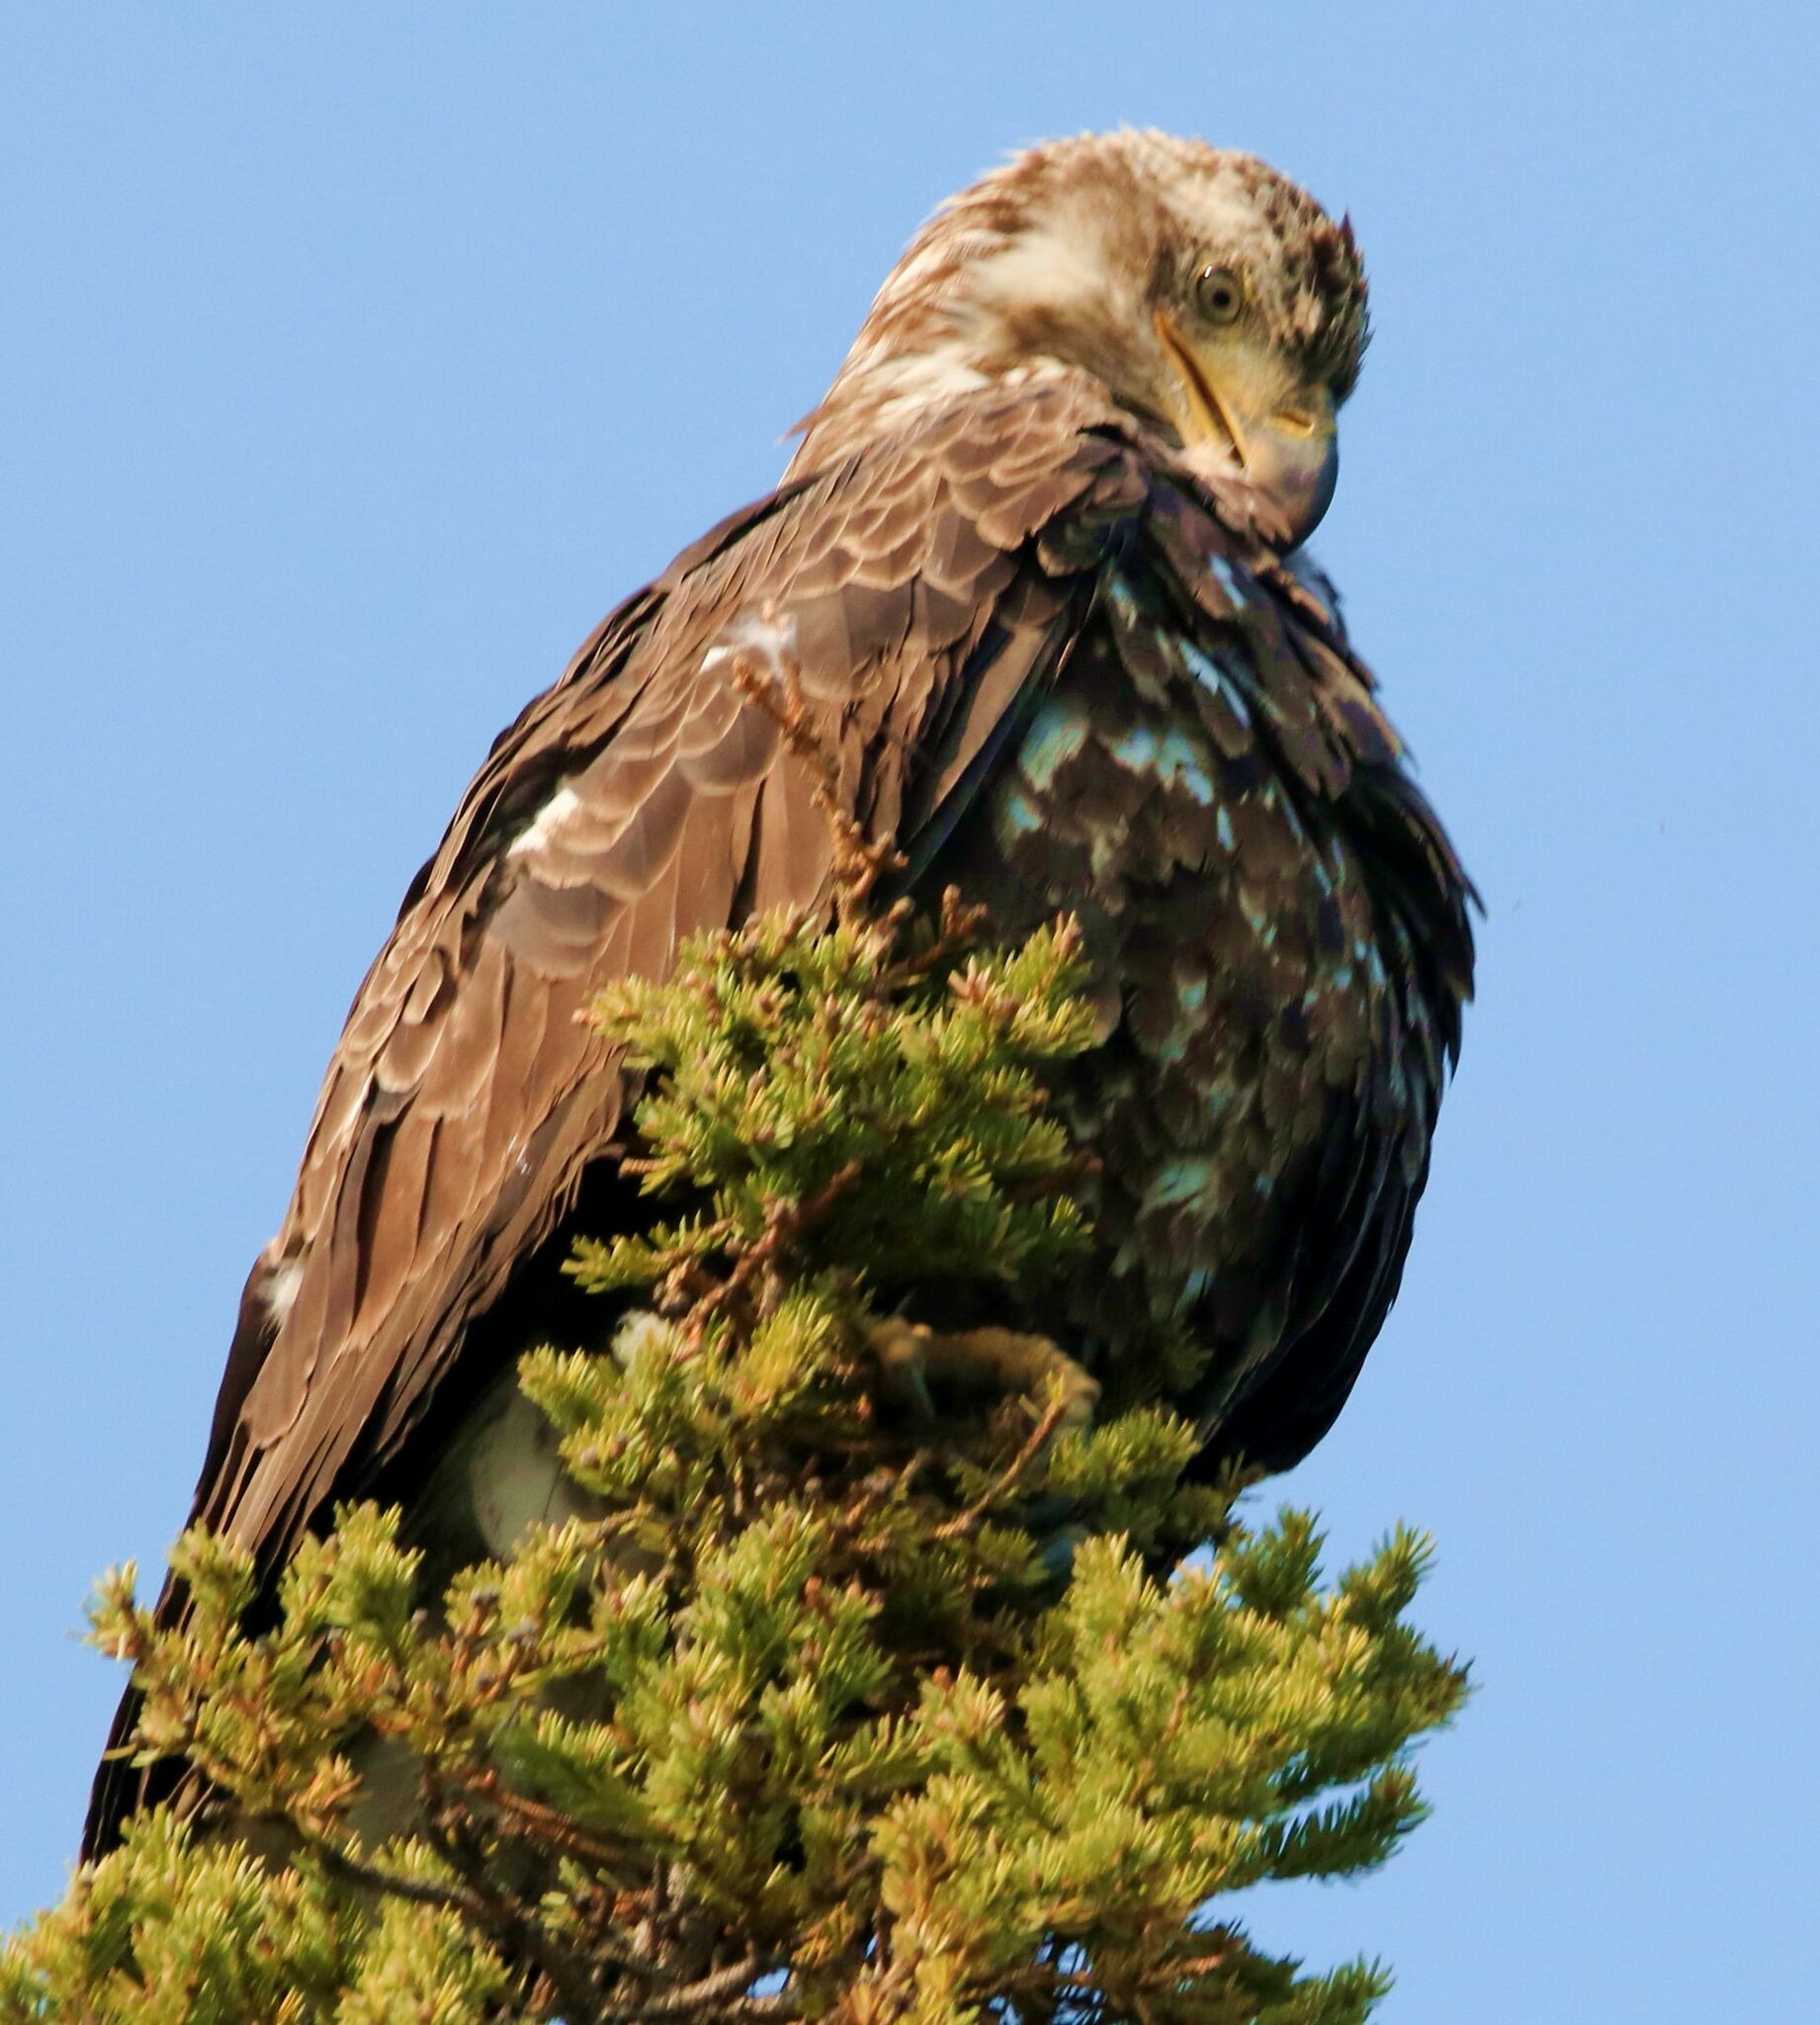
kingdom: Animalia
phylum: Chordata
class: Aves
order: Accipitriformes
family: Accipitridae
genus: Haliaeetus
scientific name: Haliaeetus leucocephalus
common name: Bald eagle
